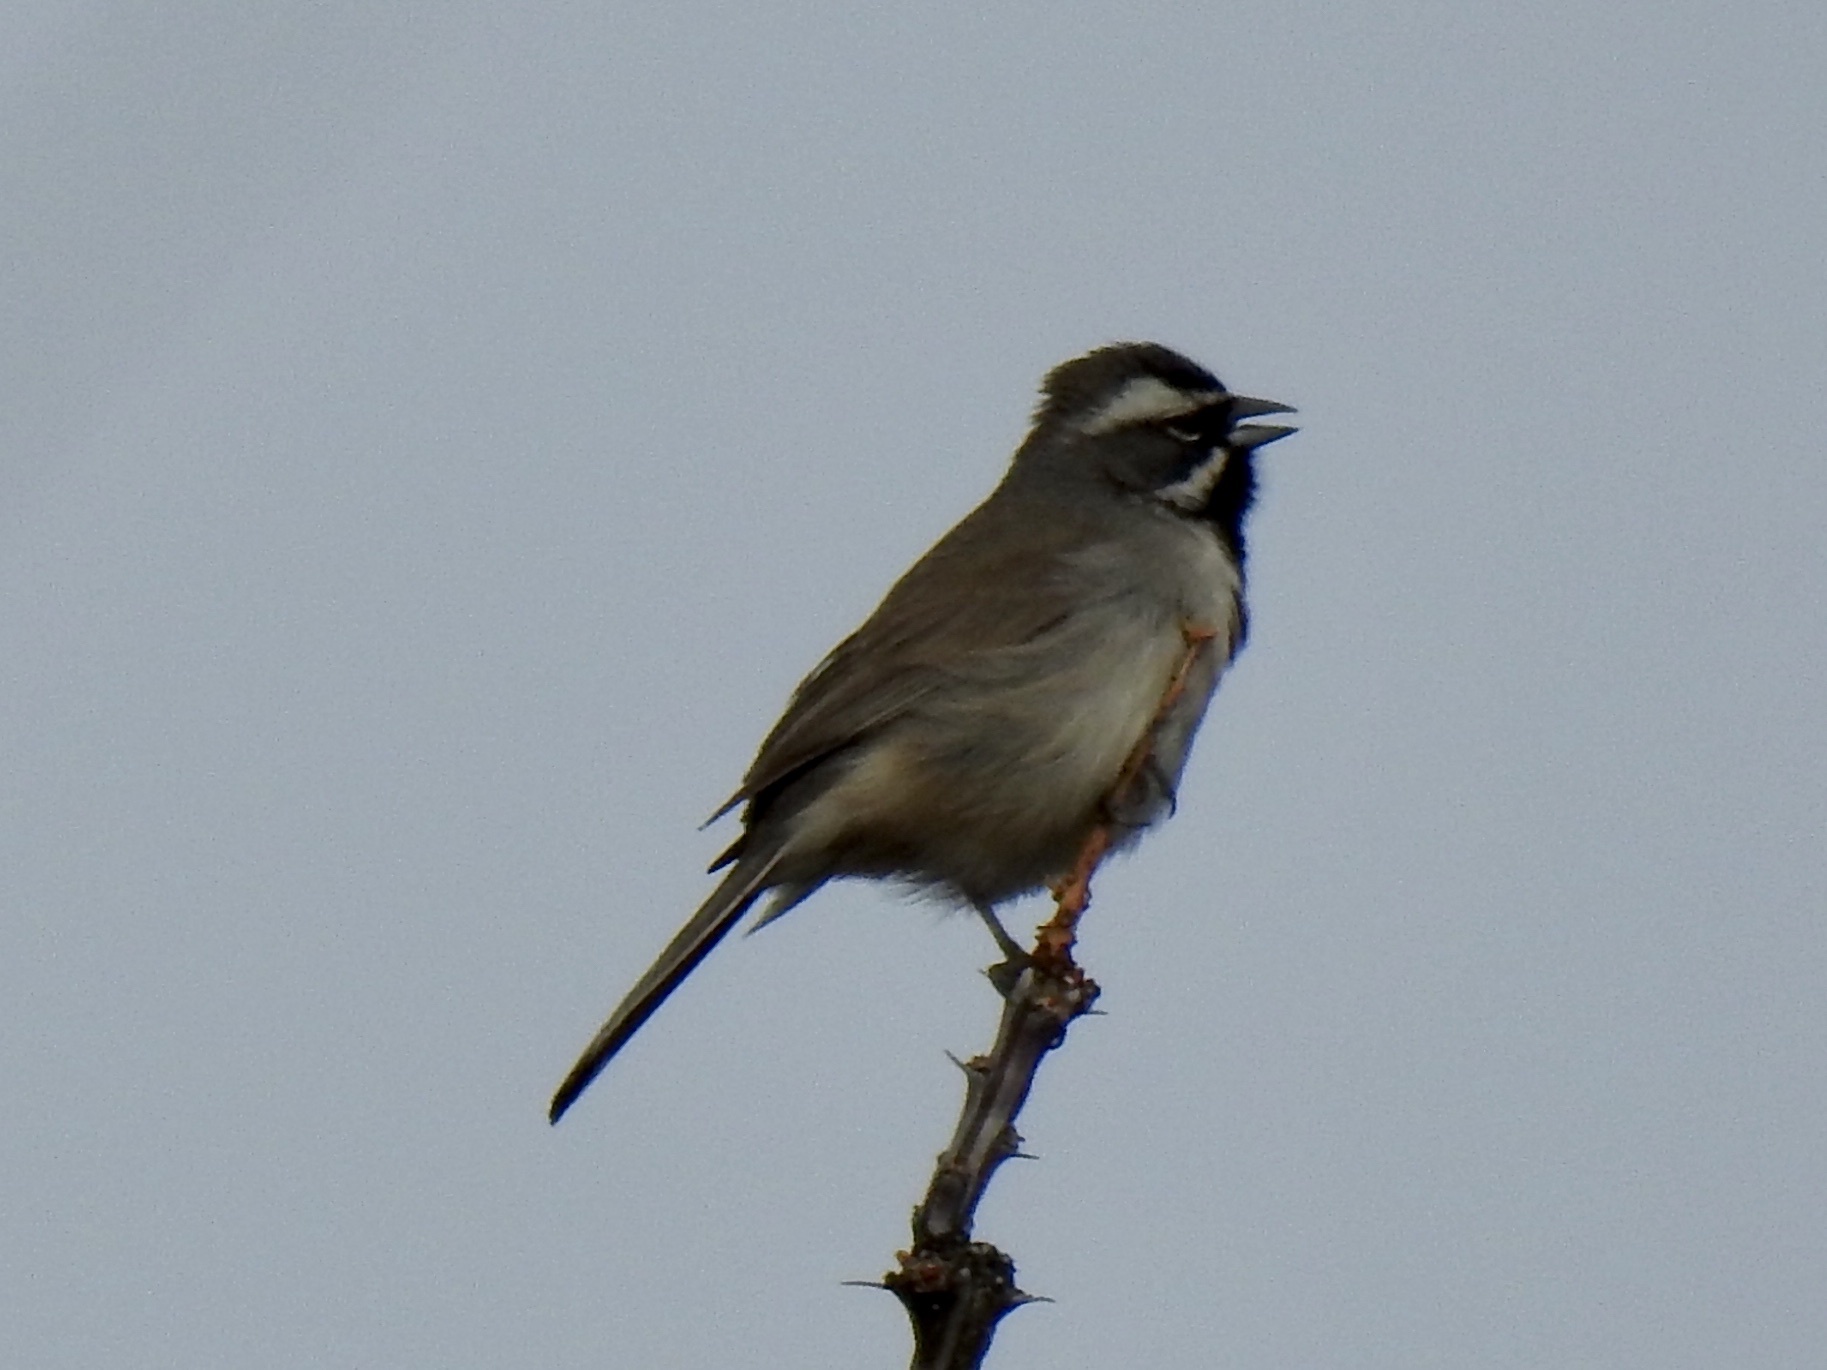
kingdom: Animalia
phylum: Chordata
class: Aves
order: Passeriformes
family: Passerellidae
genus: Amphispiza
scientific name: Amphispiza bilineata
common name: Black-throated sparrow
